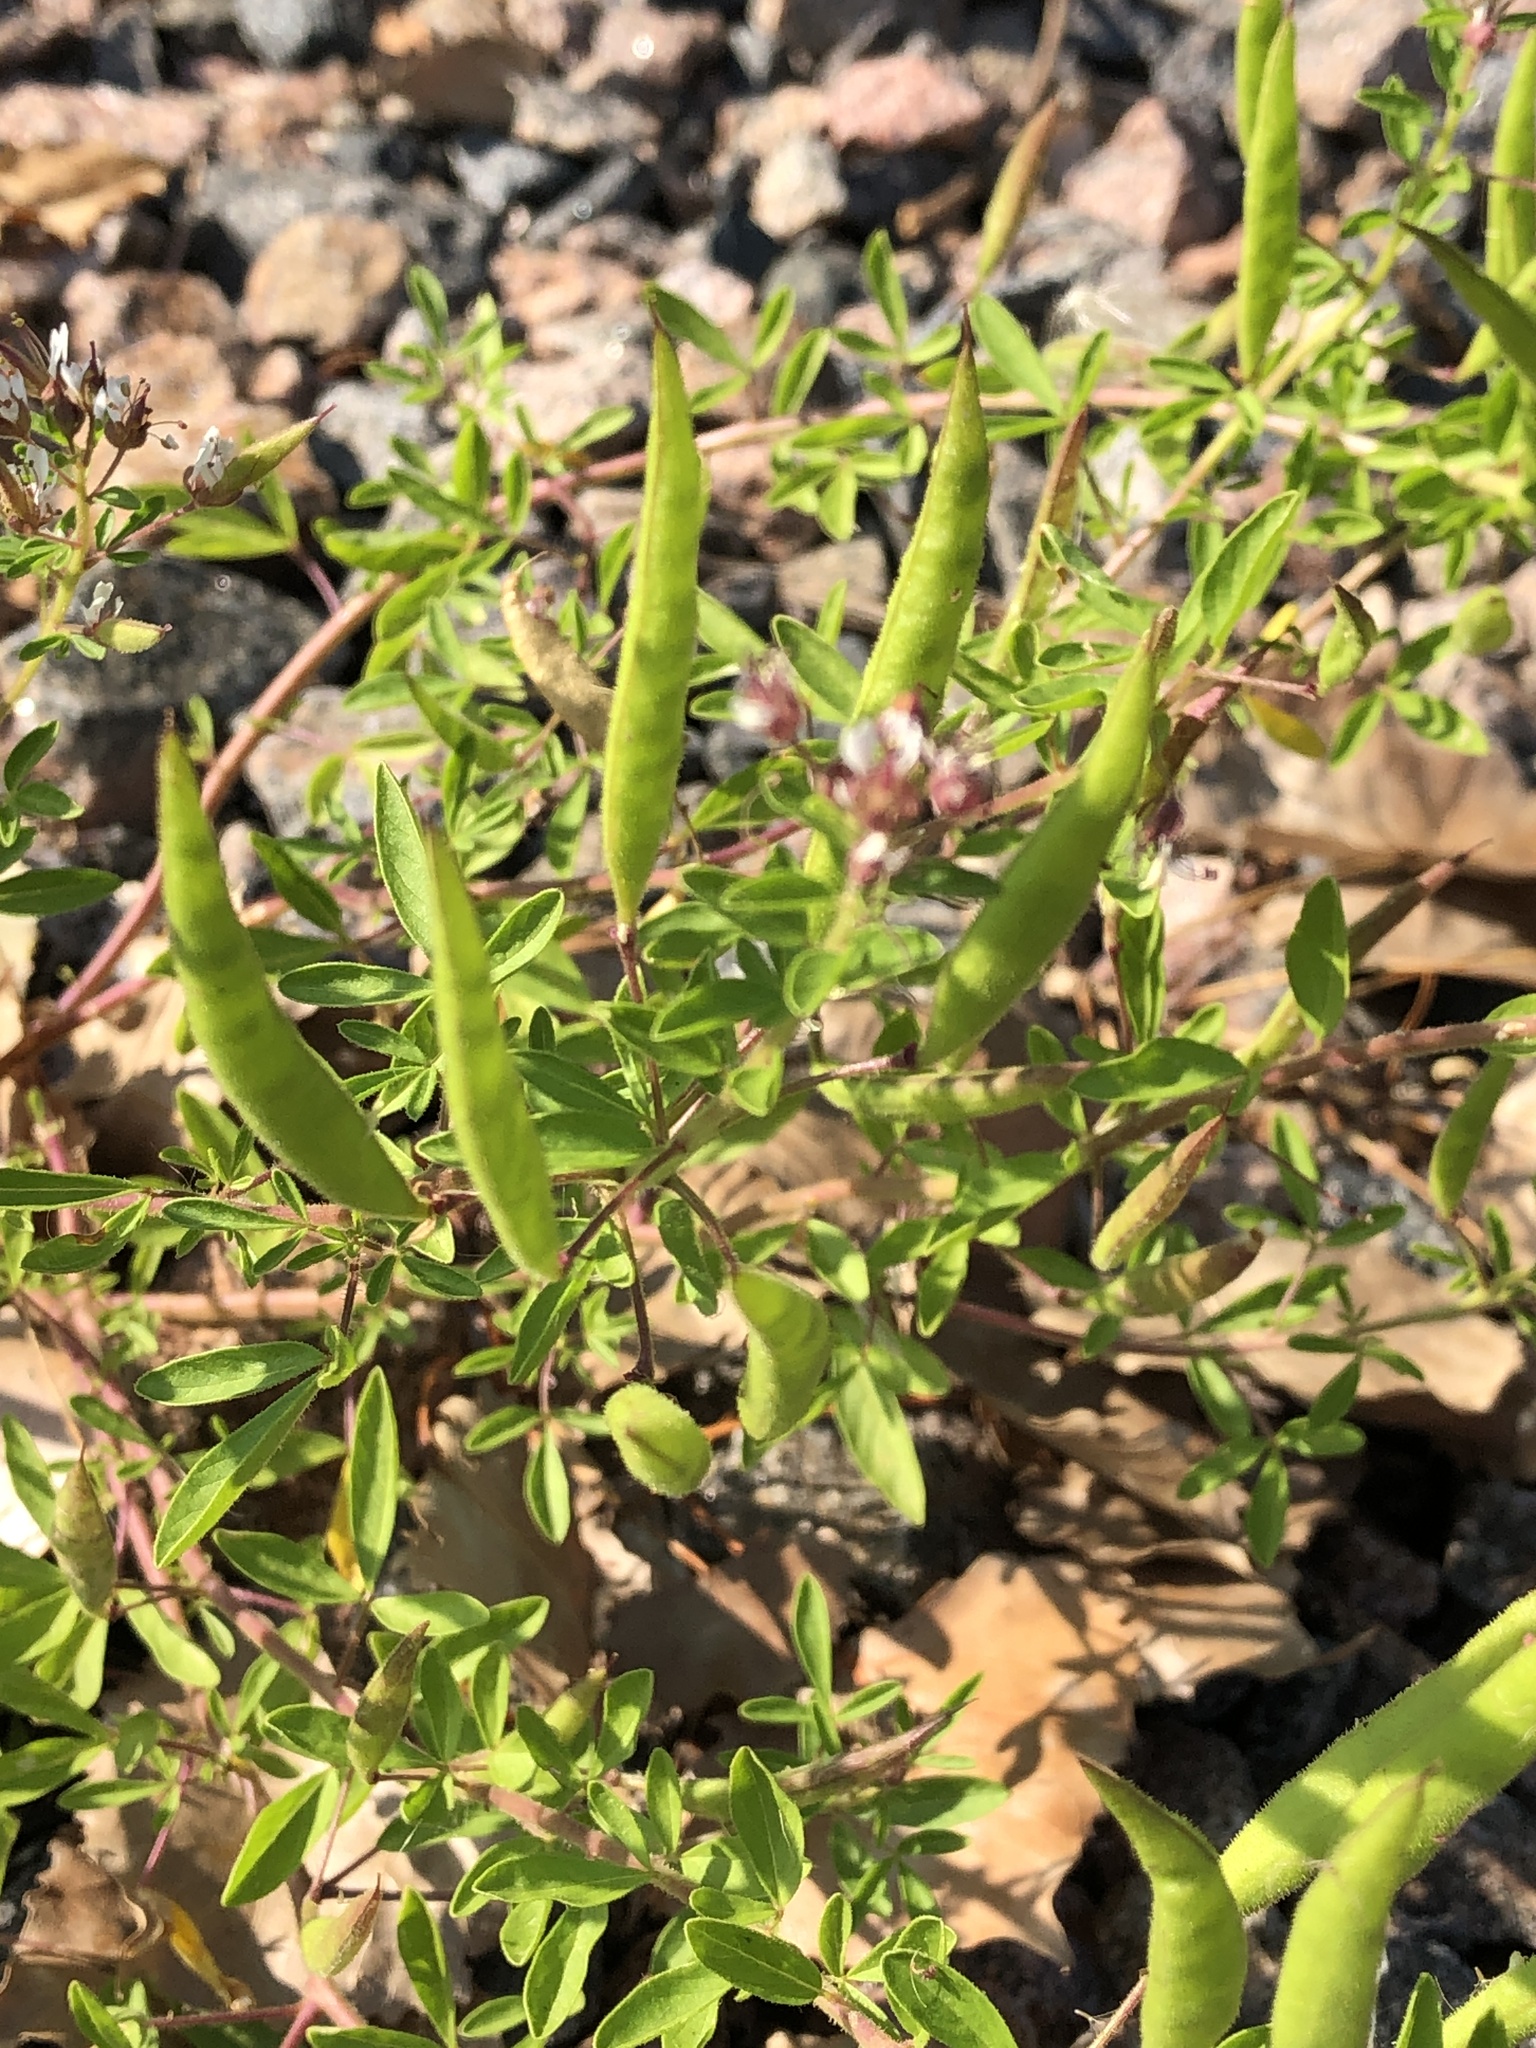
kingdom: Plantae
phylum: Tracheophyta
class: Magnoliopsida
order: Brassicales
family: Cleomaceae
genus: Polanisia
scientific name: Polanisia dodecandra
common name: Clammyweed
